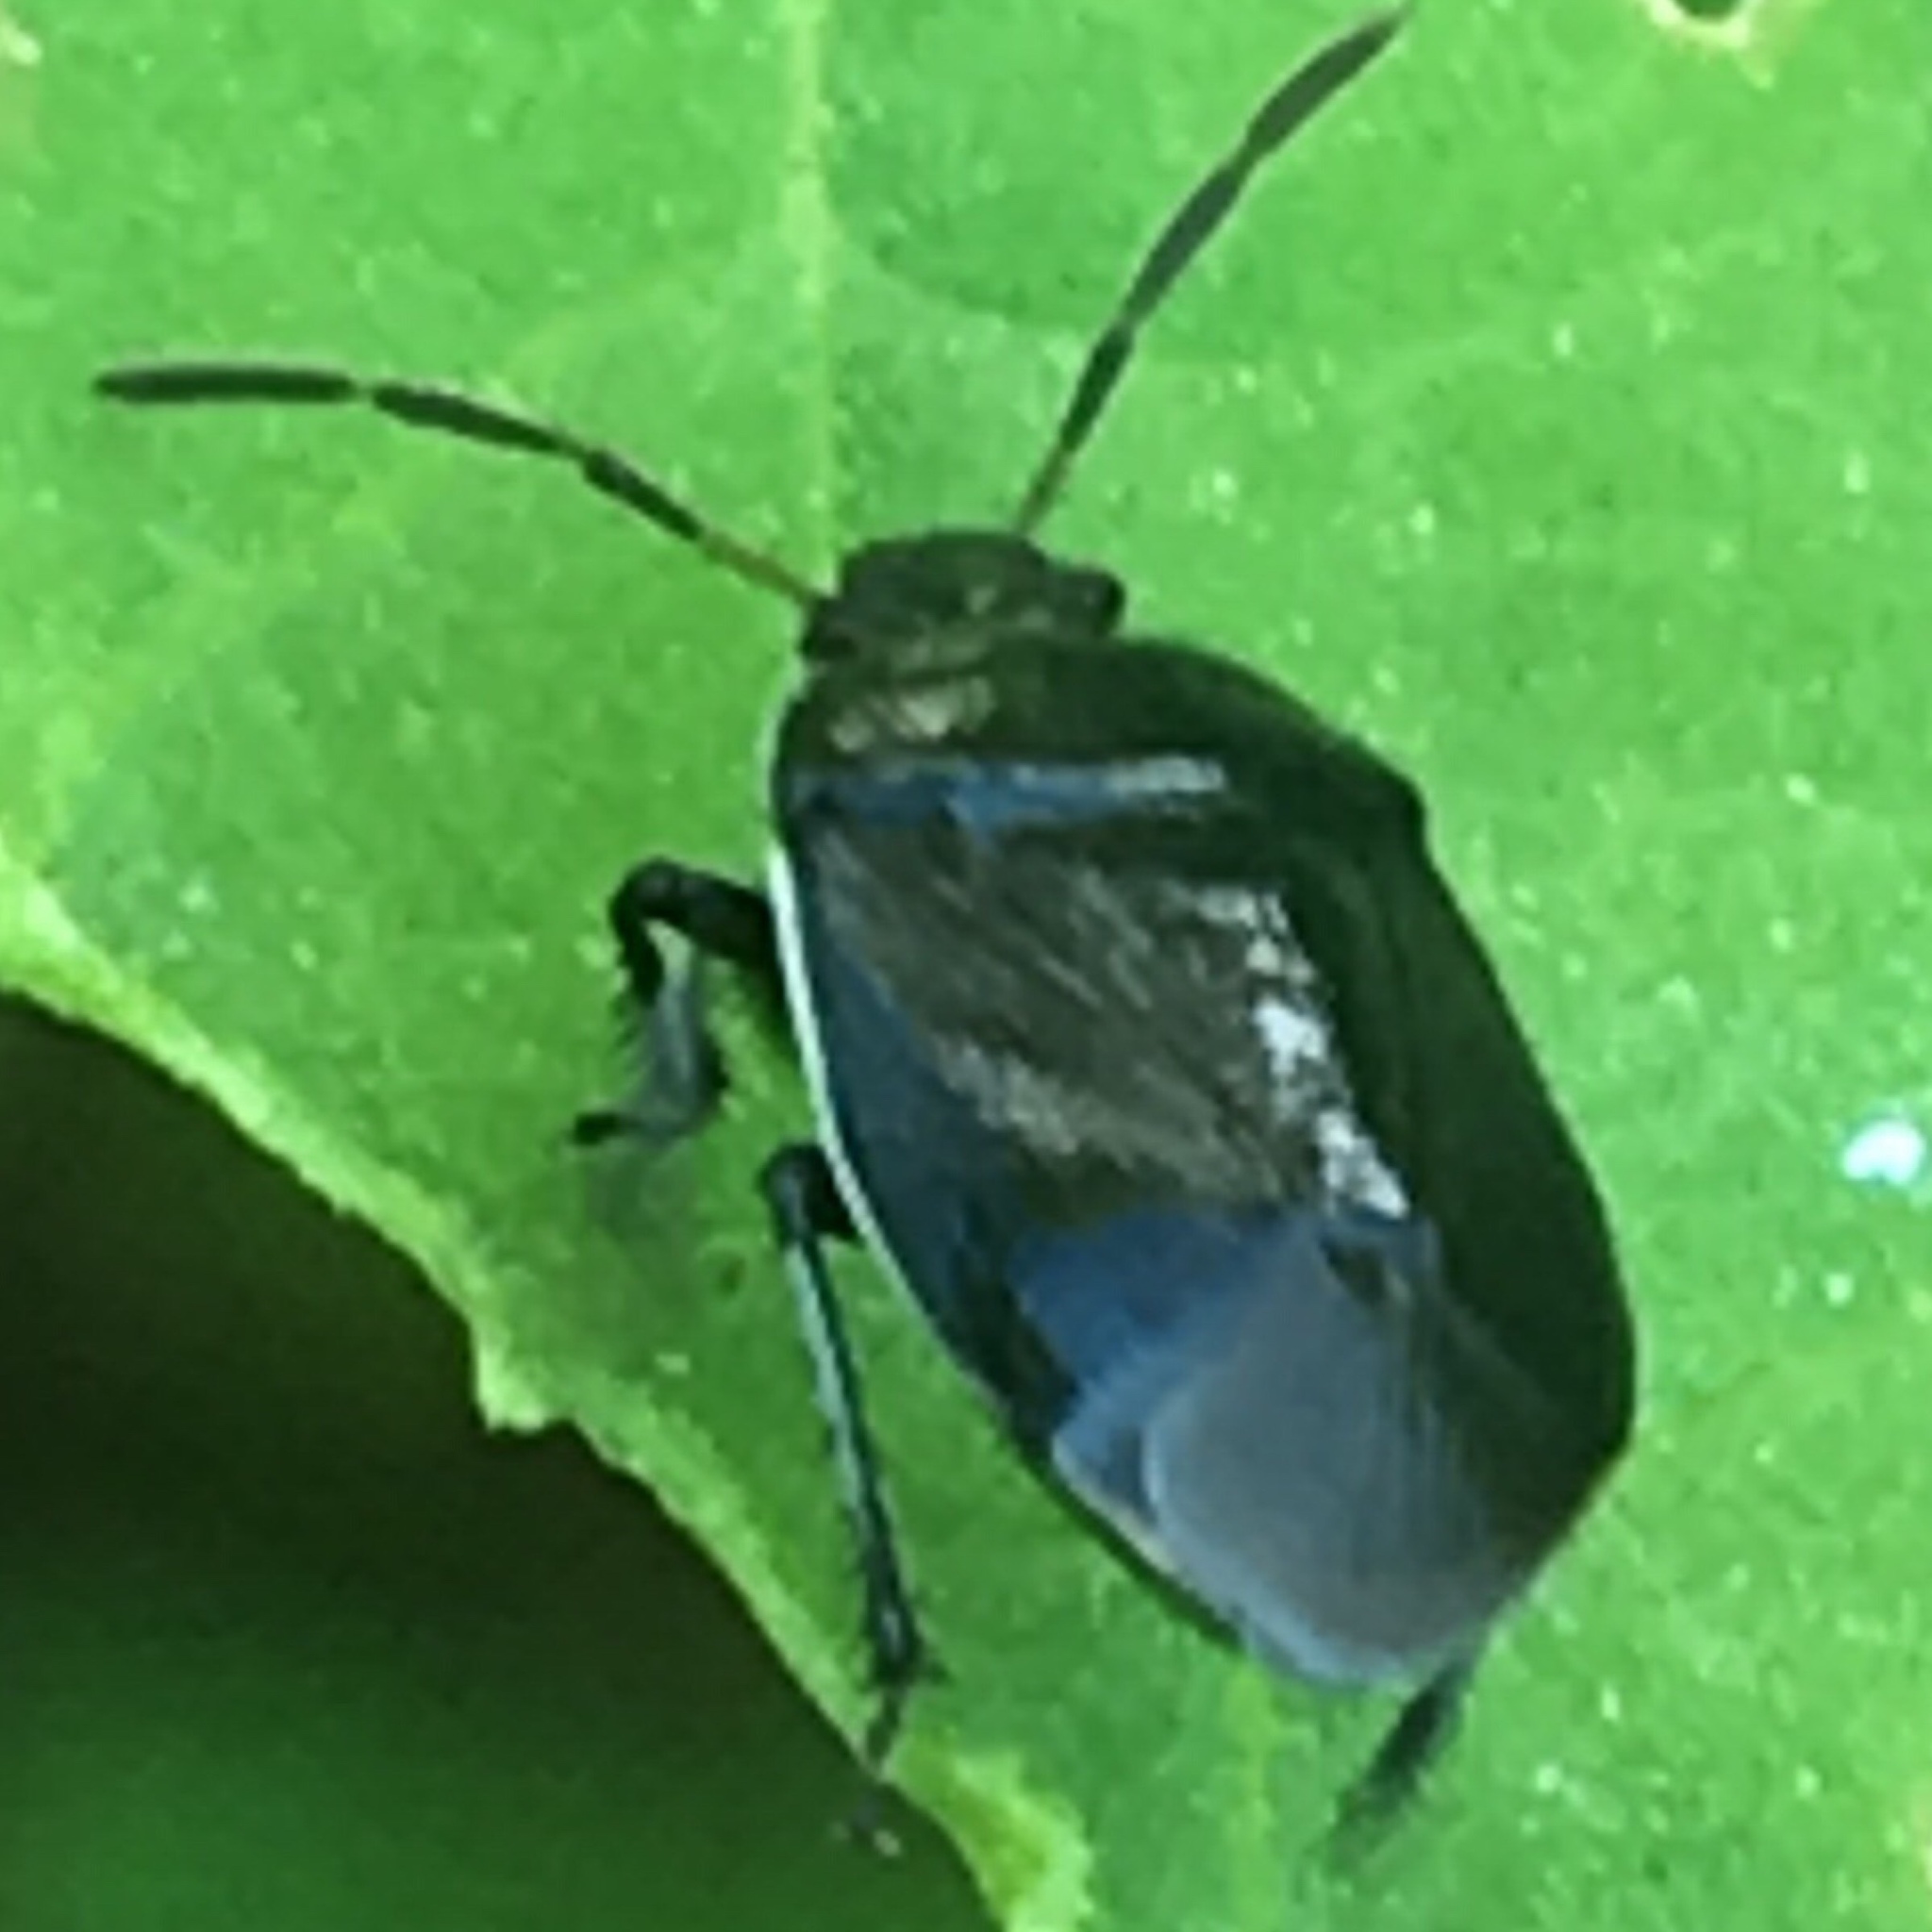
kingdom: Animalia
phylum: Arthropoda
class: Insecta
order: Hemiptera
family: Cydnidae
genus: Sehirus
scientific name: Sehirus cinctus
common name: White-margined burrower bug
